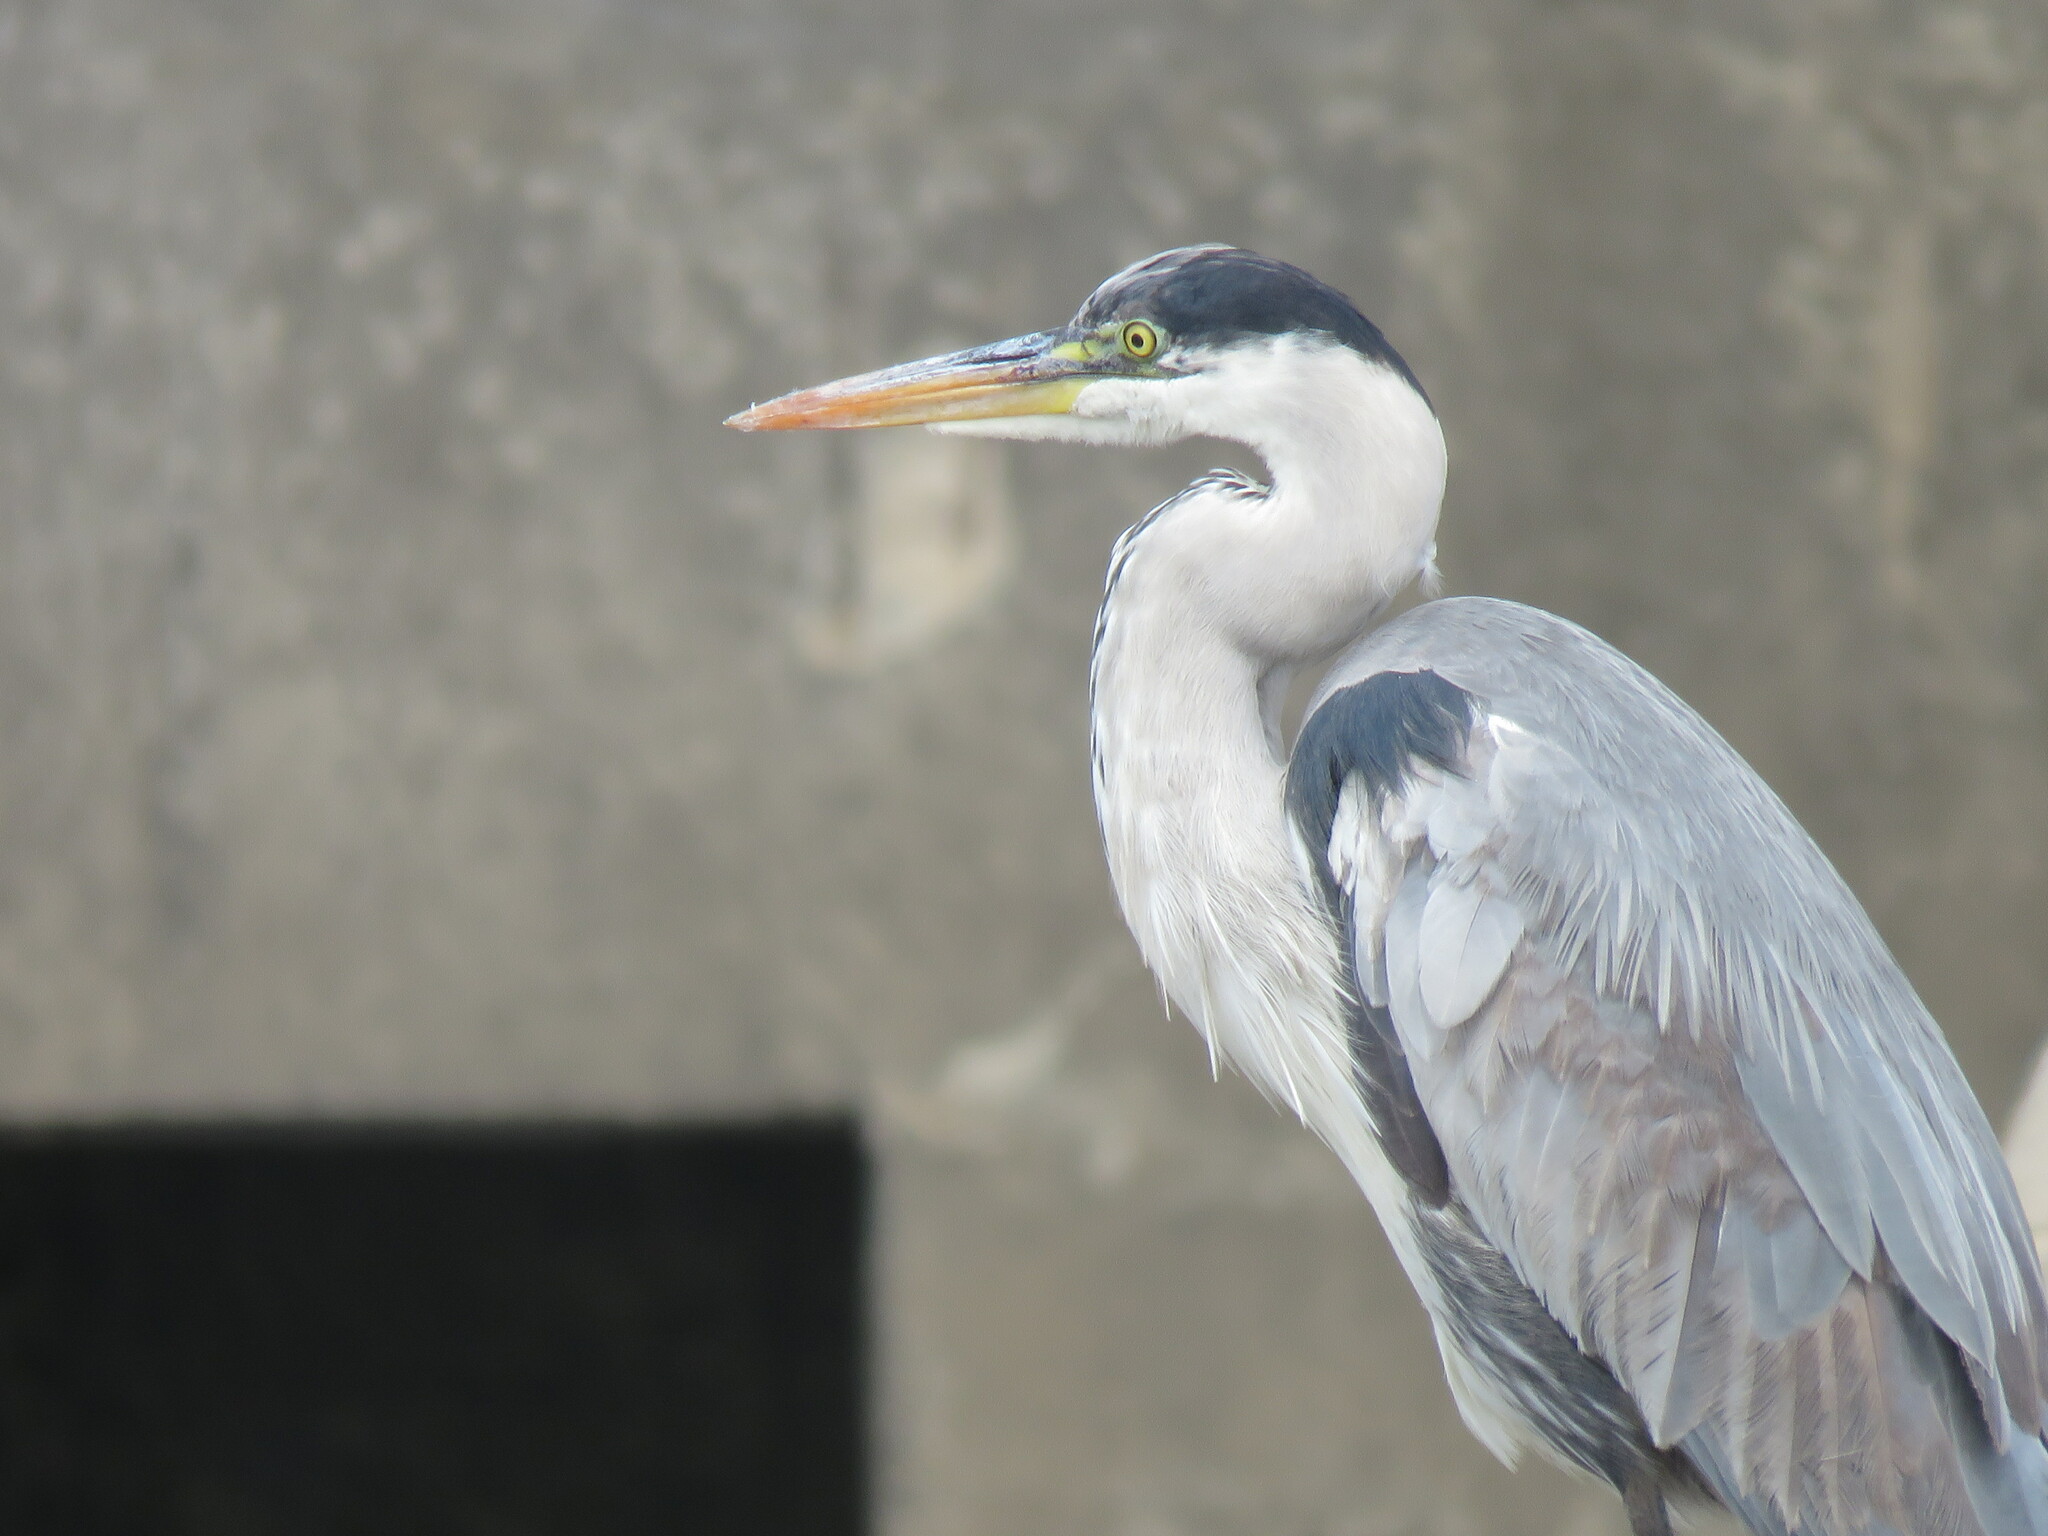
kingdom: Animalia
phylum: Chordata
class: Aves
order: Pelecaniformes
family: Ardeidae
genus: Ardea
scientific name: Ardea cocoi
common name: Cocoi heron
